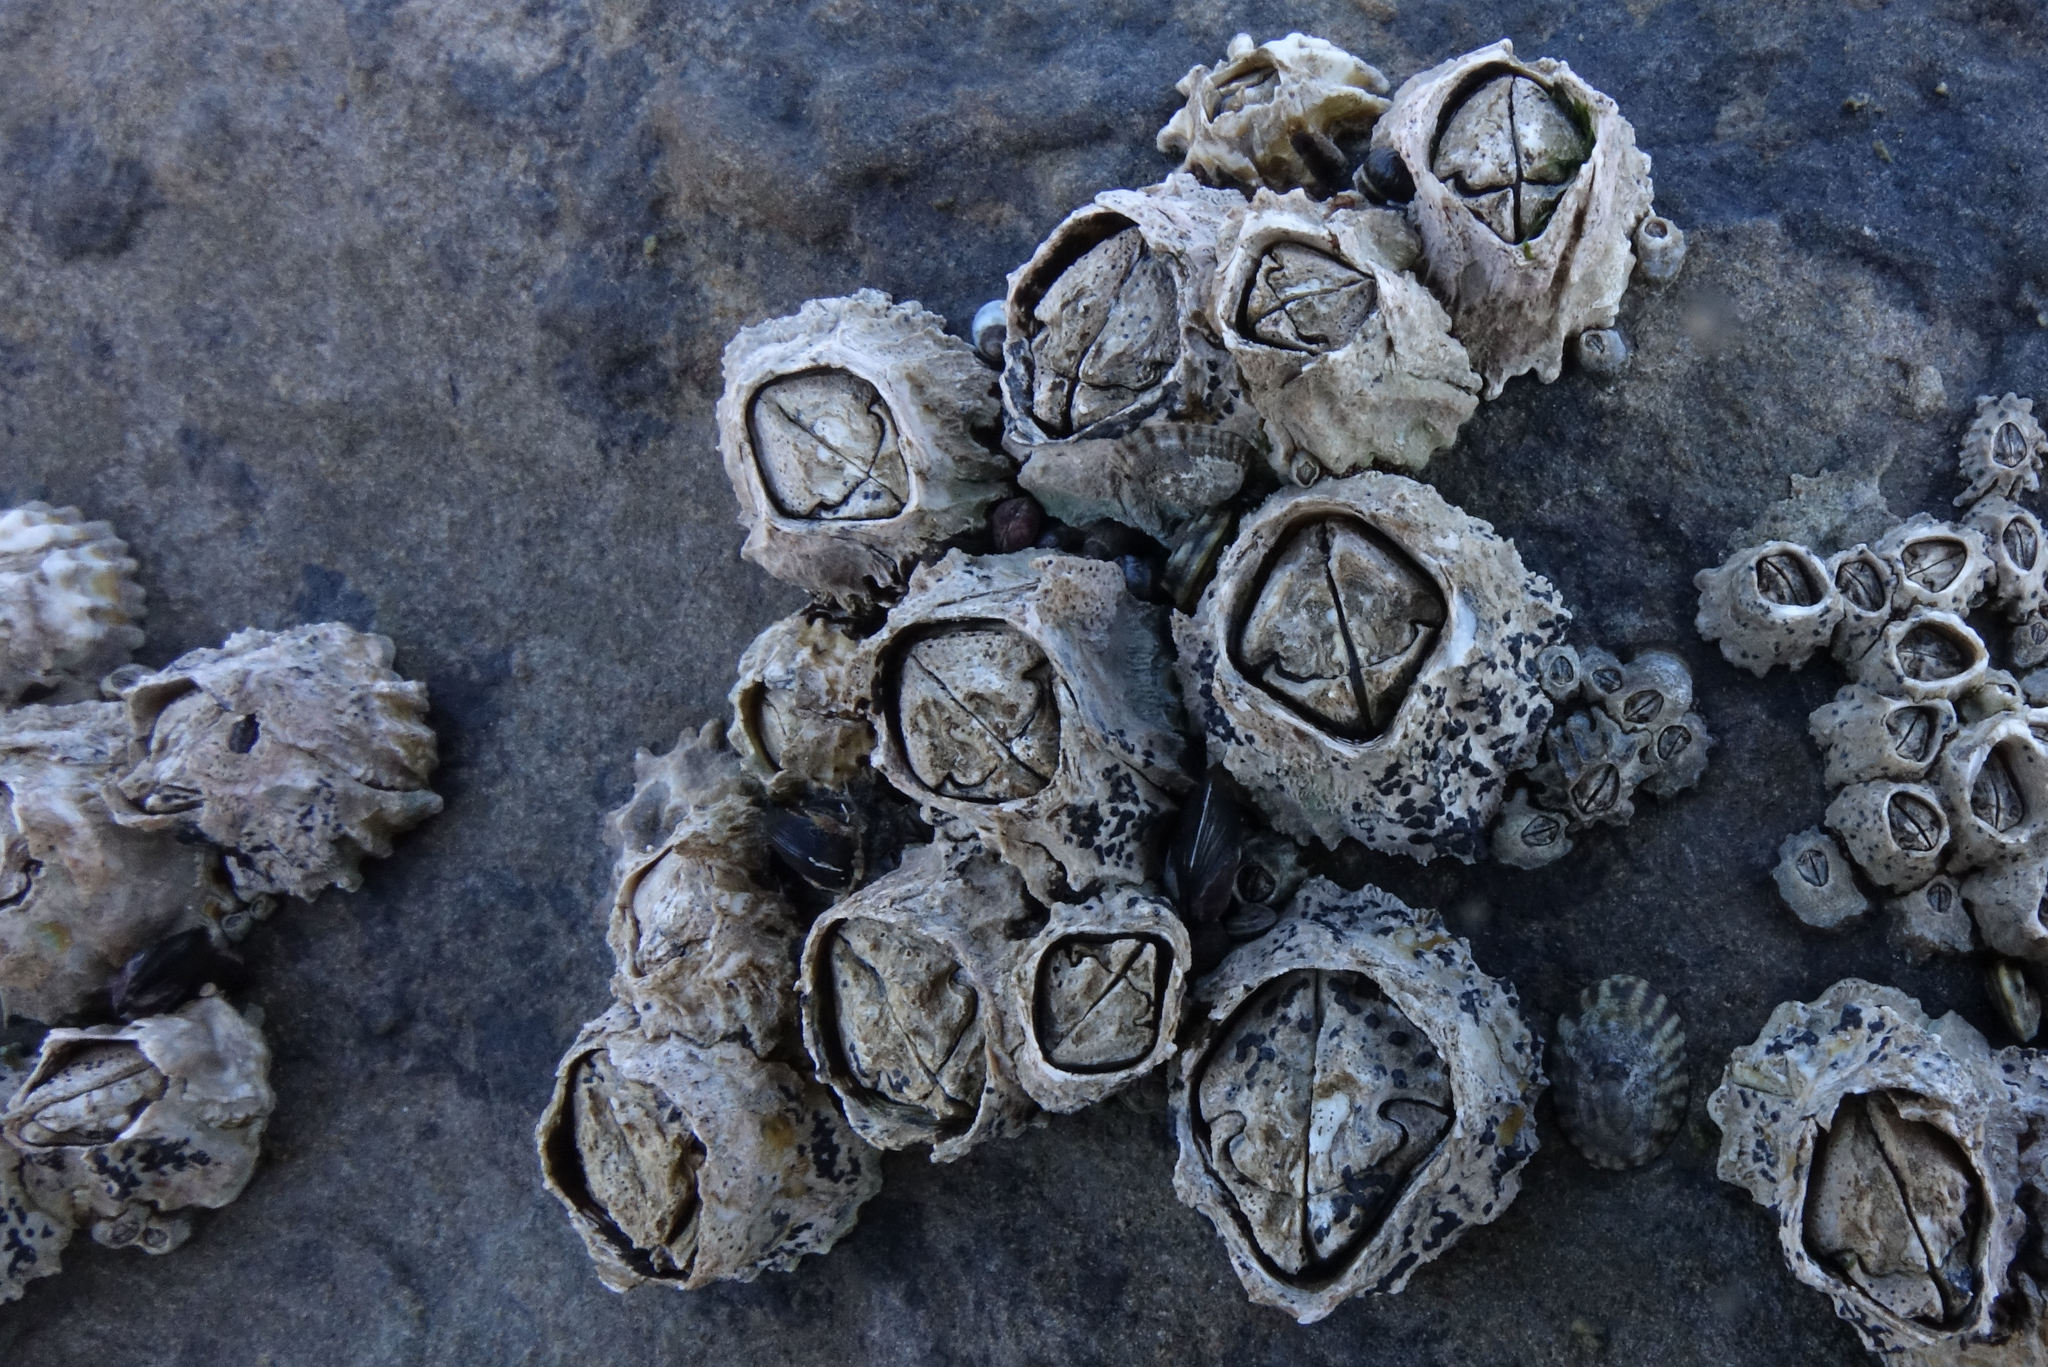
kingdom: Animalia
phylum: Arthropoda
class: Maxillopoda
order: Sessilia
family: Tetraclitidae
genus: Epopella
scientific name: Epopella plicata
